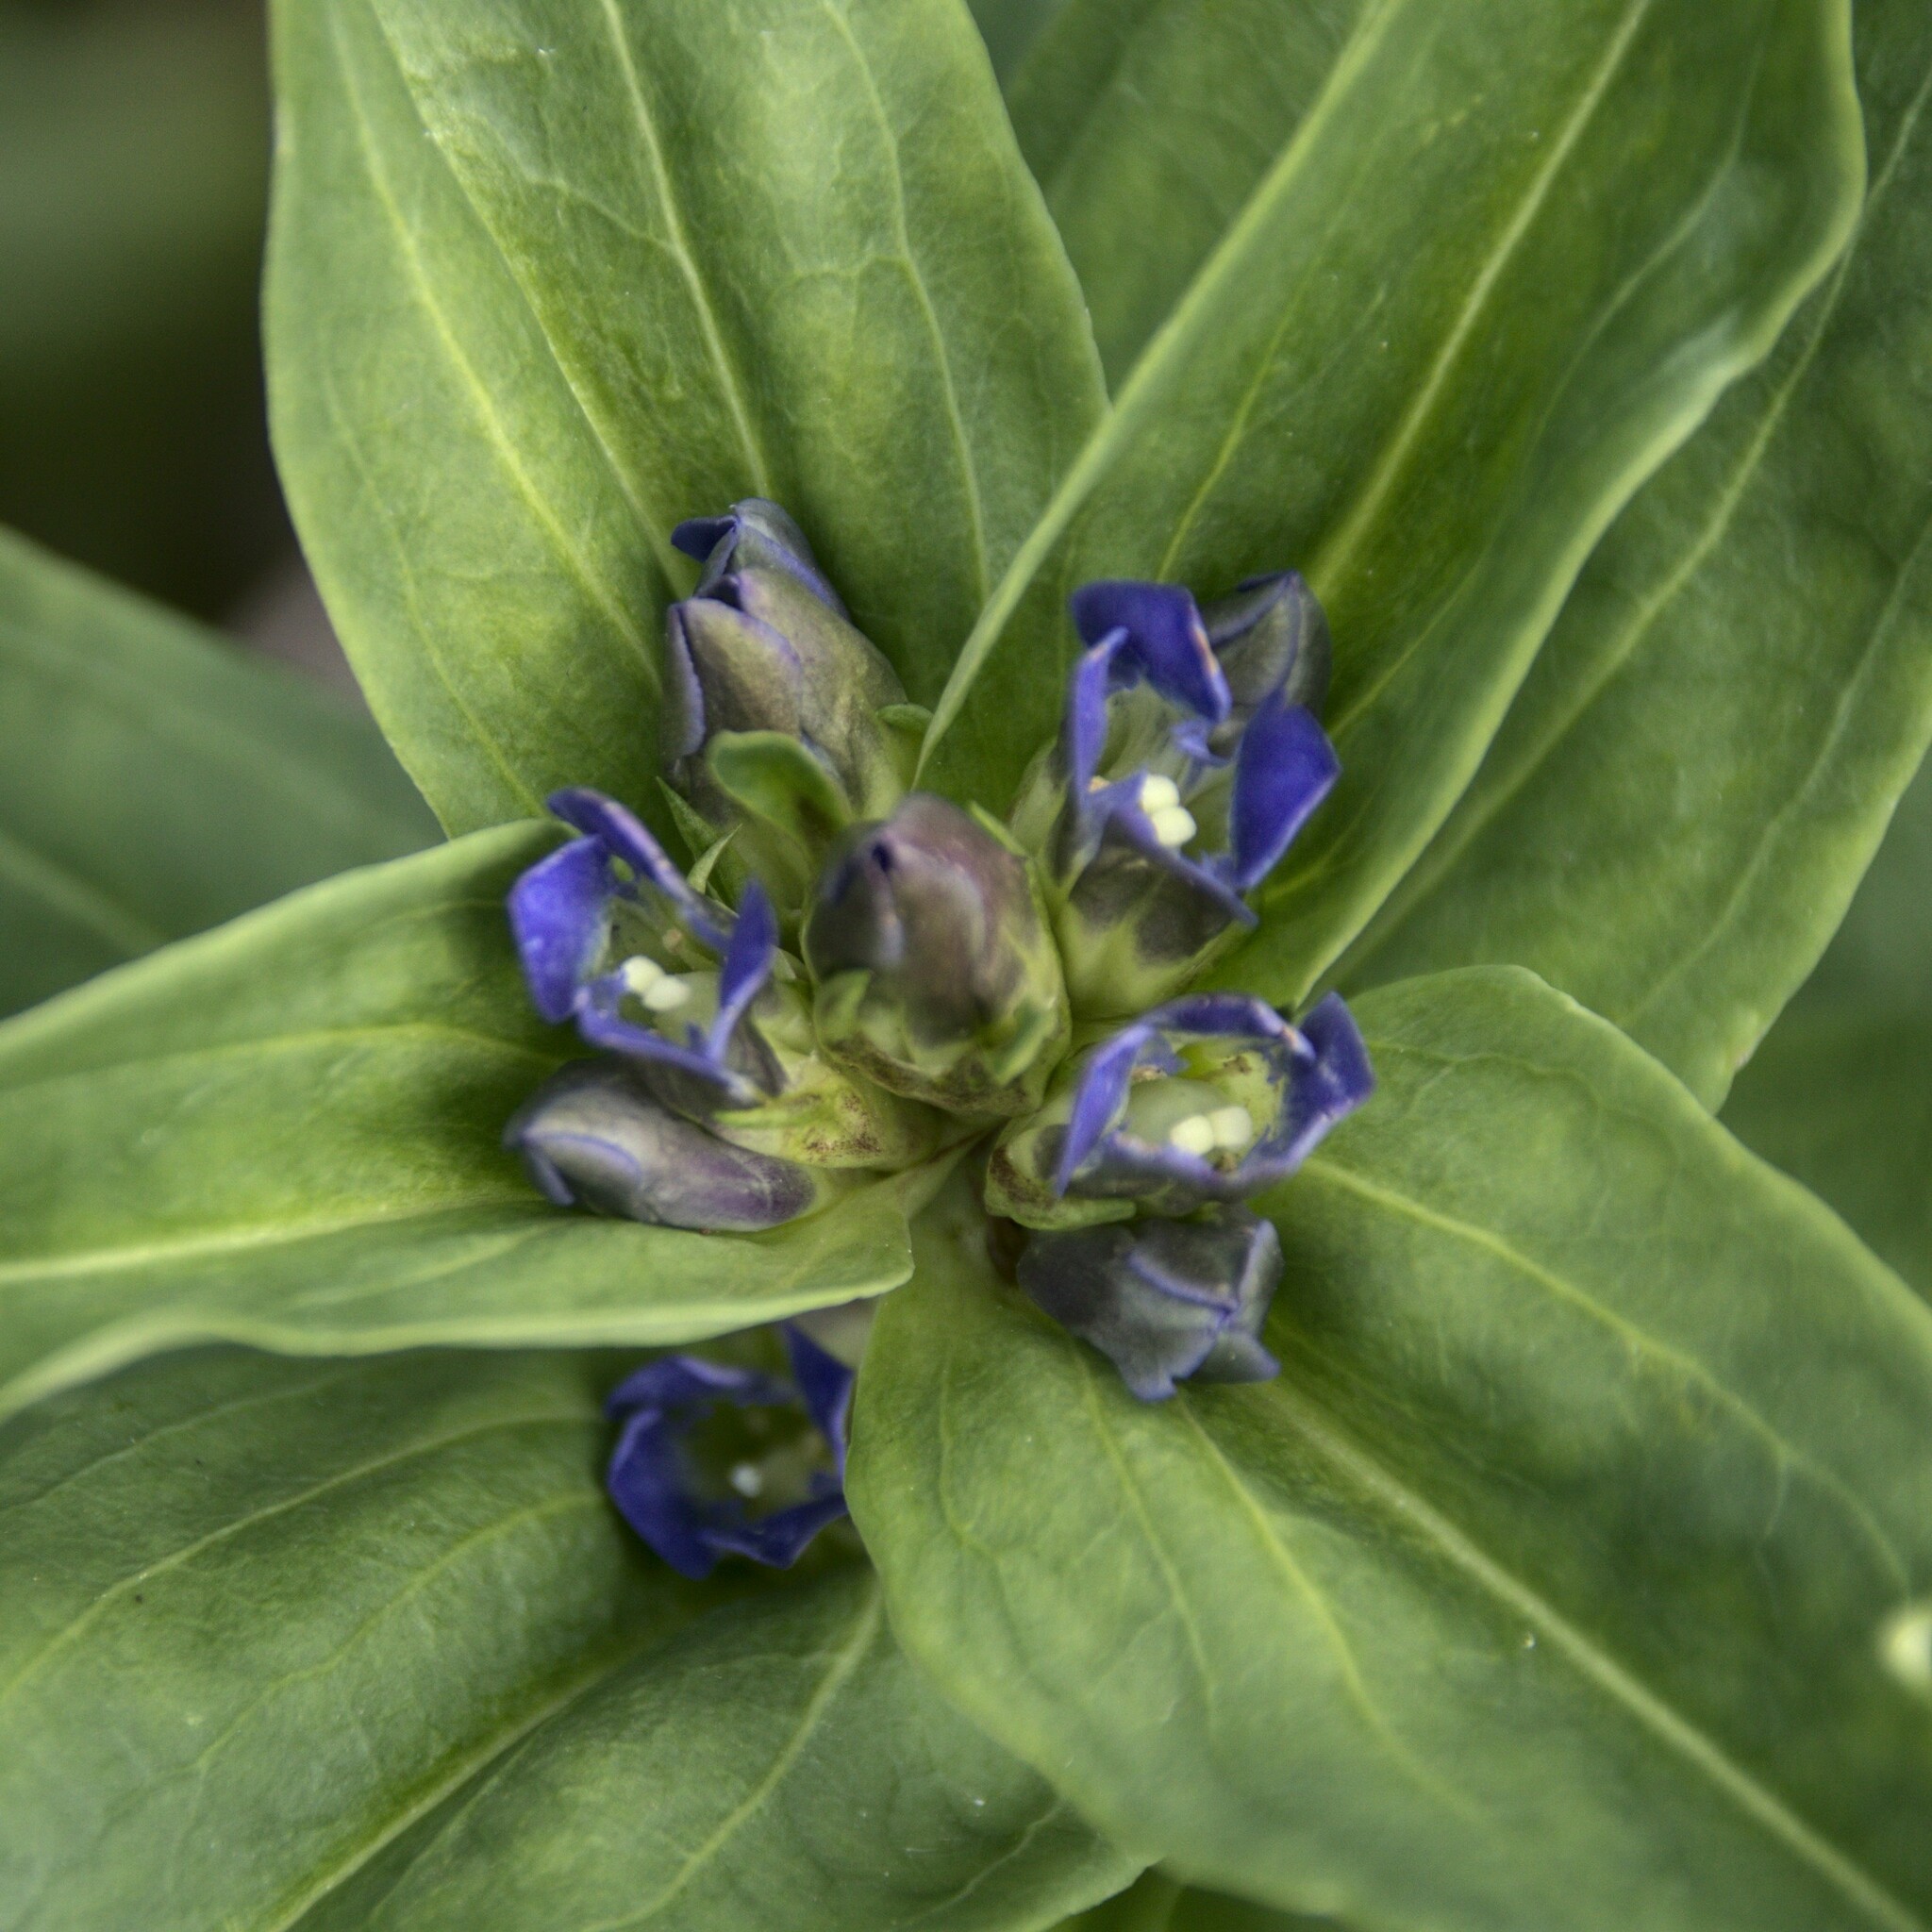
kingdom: Plantae
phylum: Tracheophyta
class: Magnoliopsida
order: Gentianales
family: Gentianaceae
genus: Gentiana
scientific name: Gentiana cruciata
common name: Cross gentian
